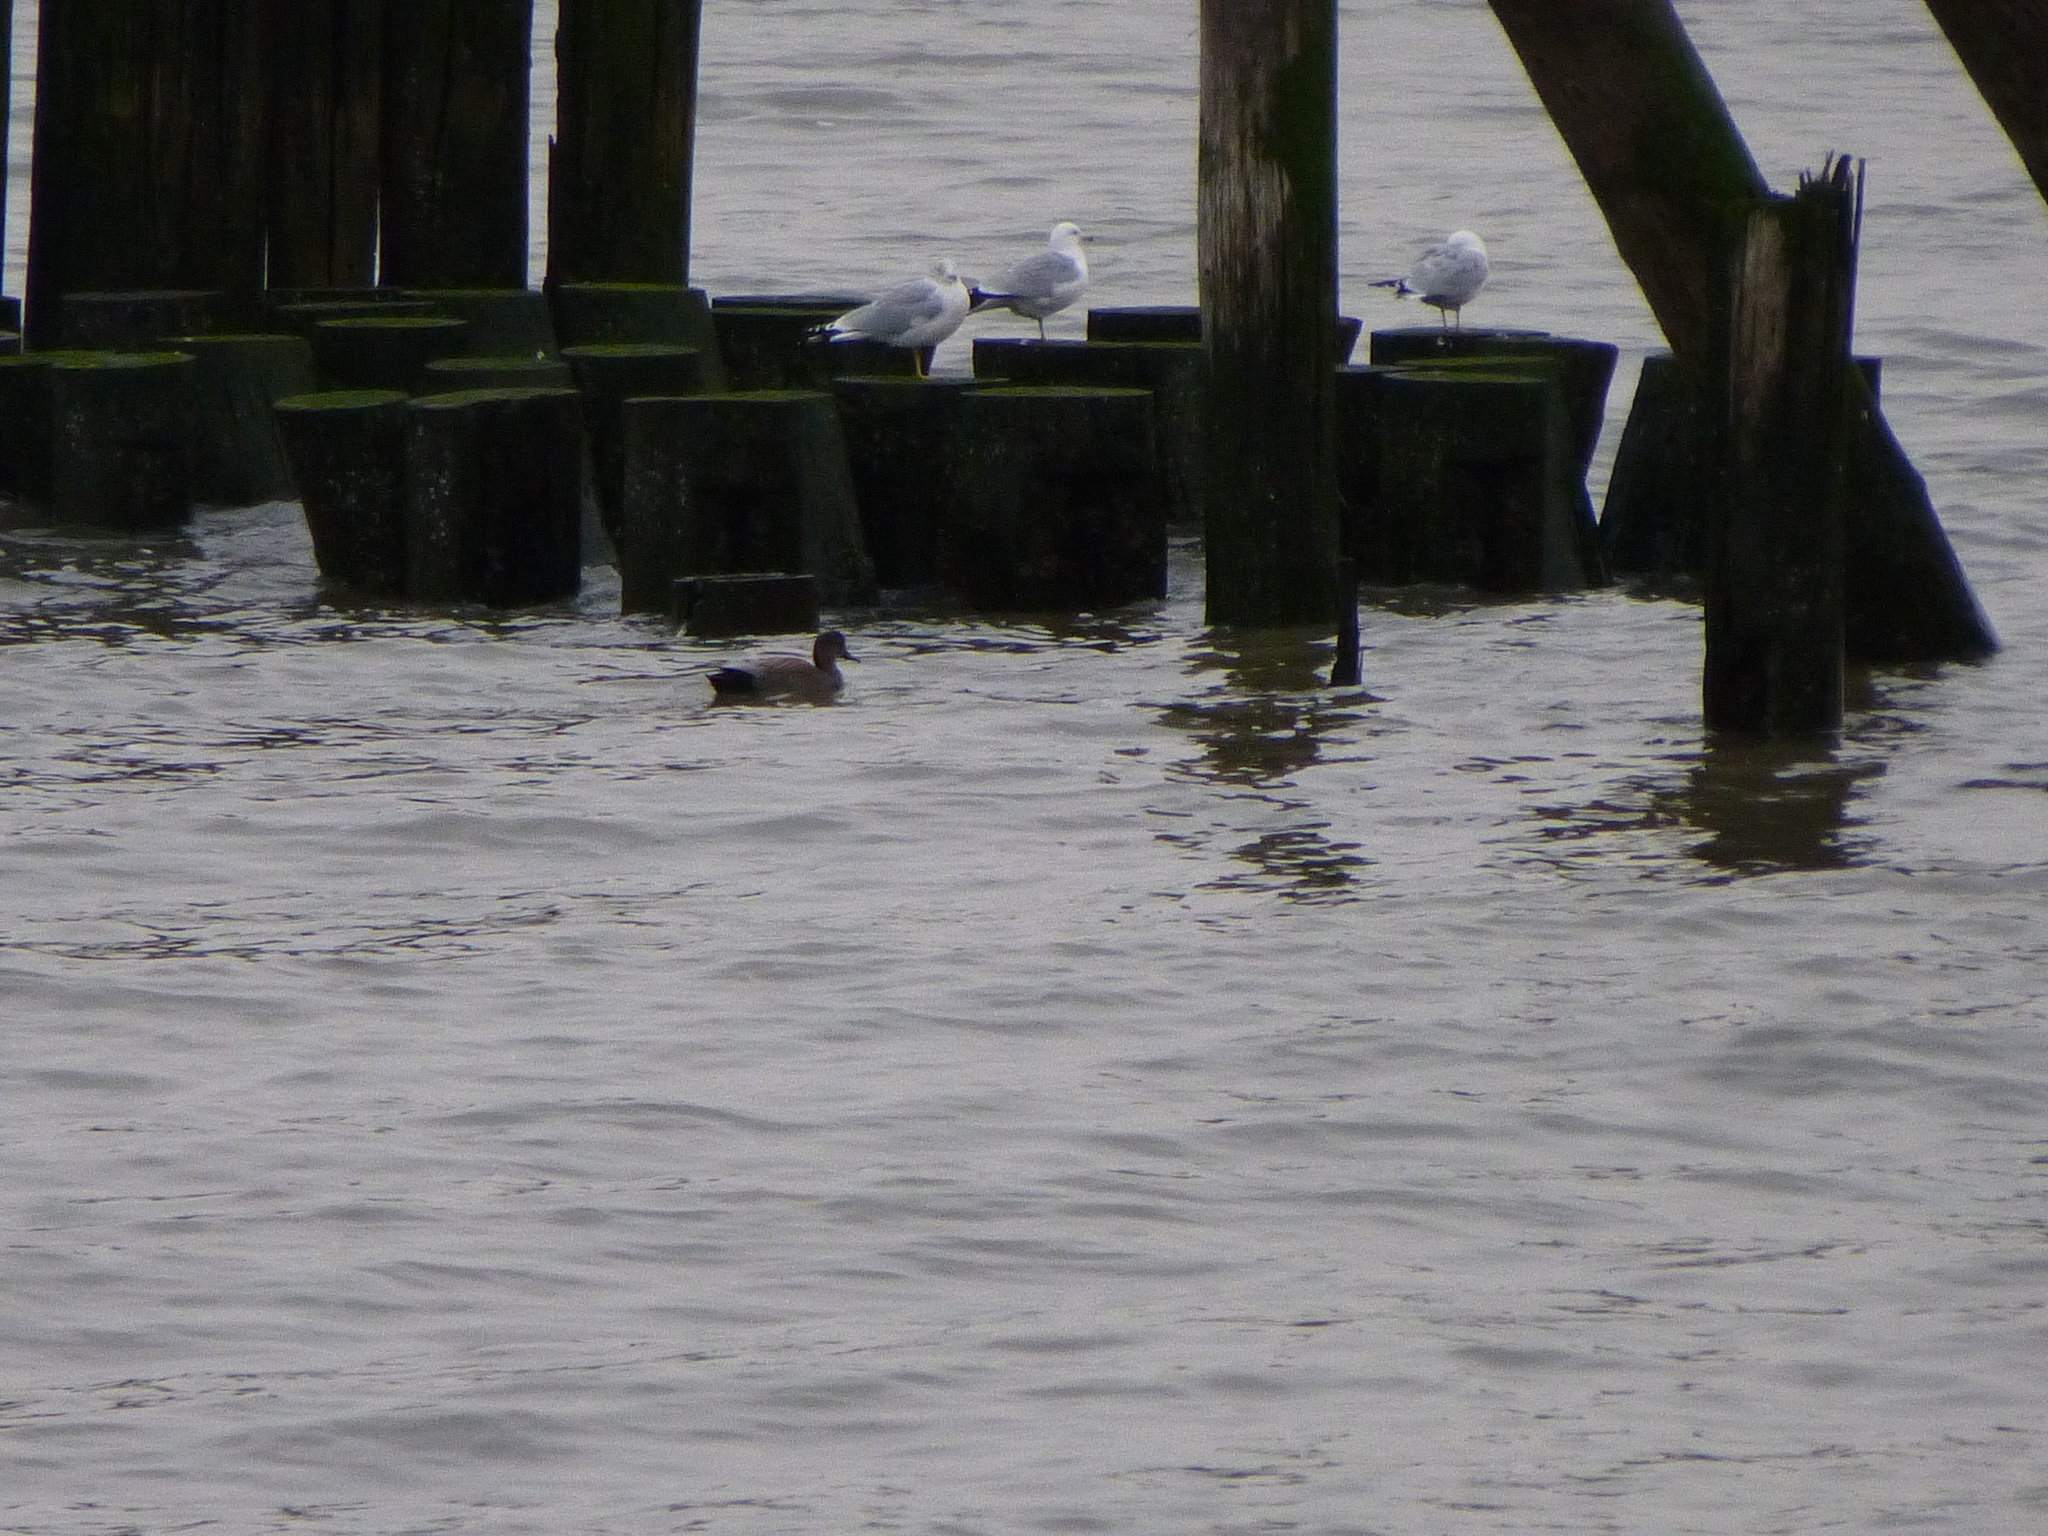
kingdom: Animalia
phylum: Chordata
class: Aves
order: Anseriformes
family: Anatidae
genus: Mareca
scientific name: Mareca strepera
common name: Gadwall
